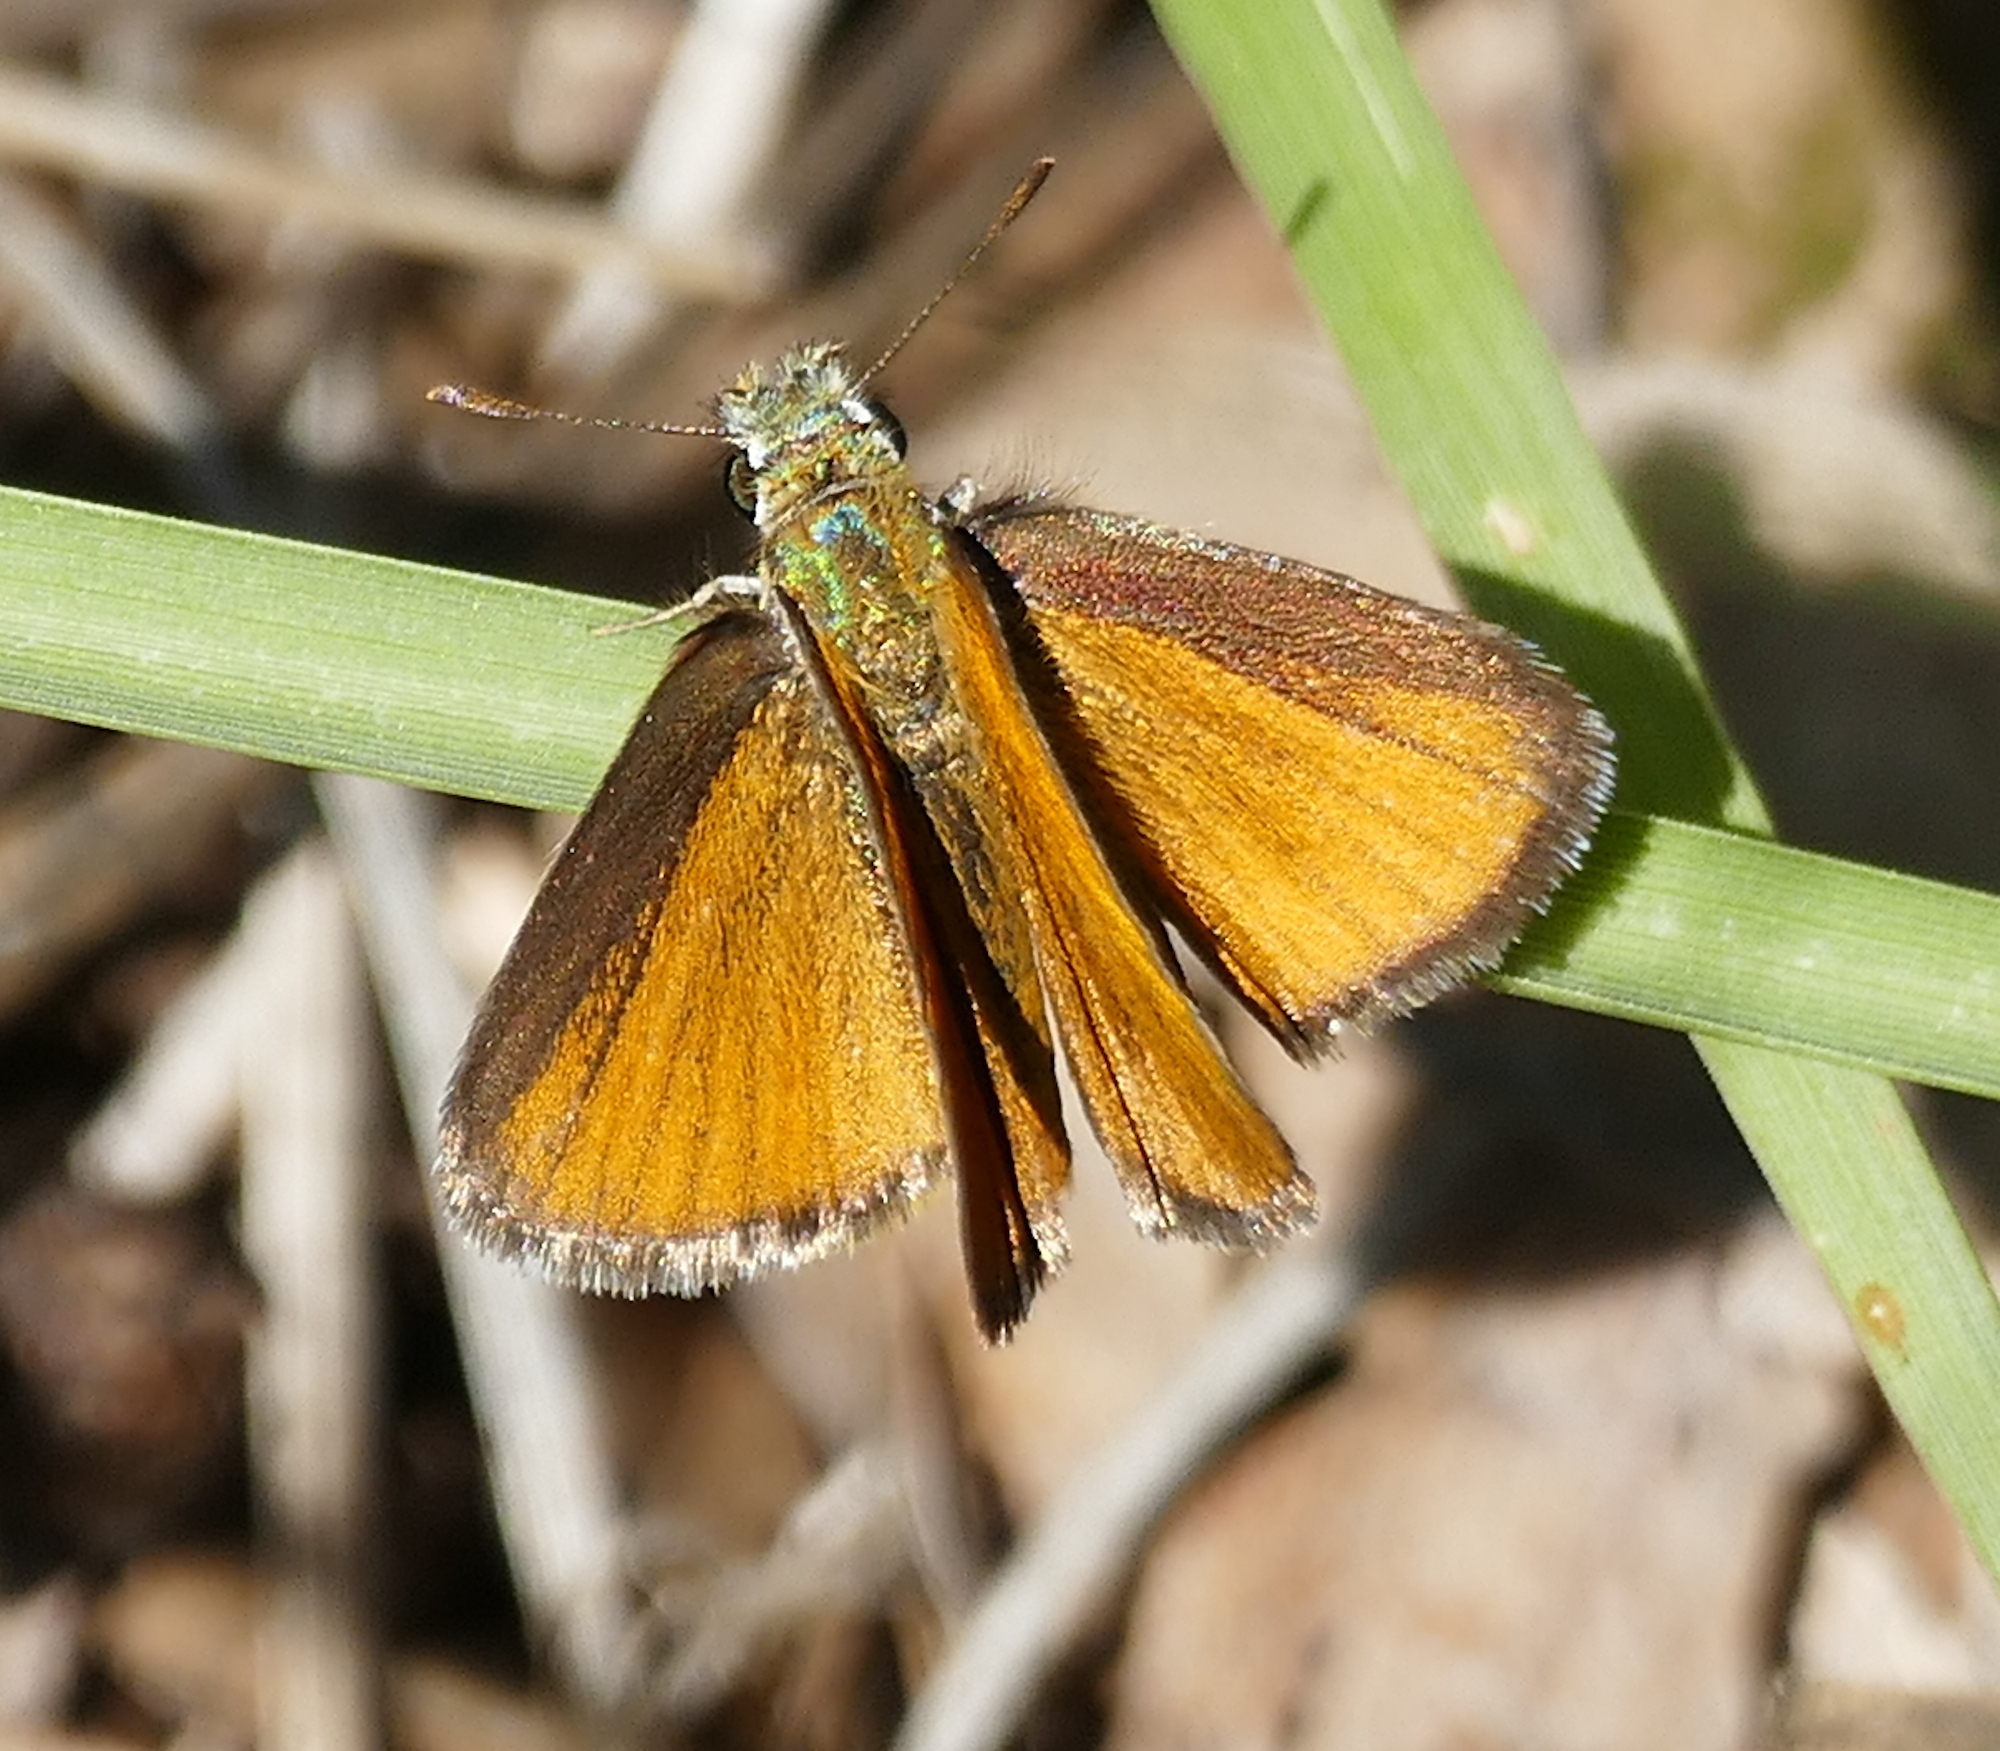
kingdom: Animalia
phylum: Arthropoda
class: Insecta
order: Lepidoptera
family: Hesperiidae
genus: Oarisma
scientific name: Oarisma edwardsii
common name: Edwards' skipperling
